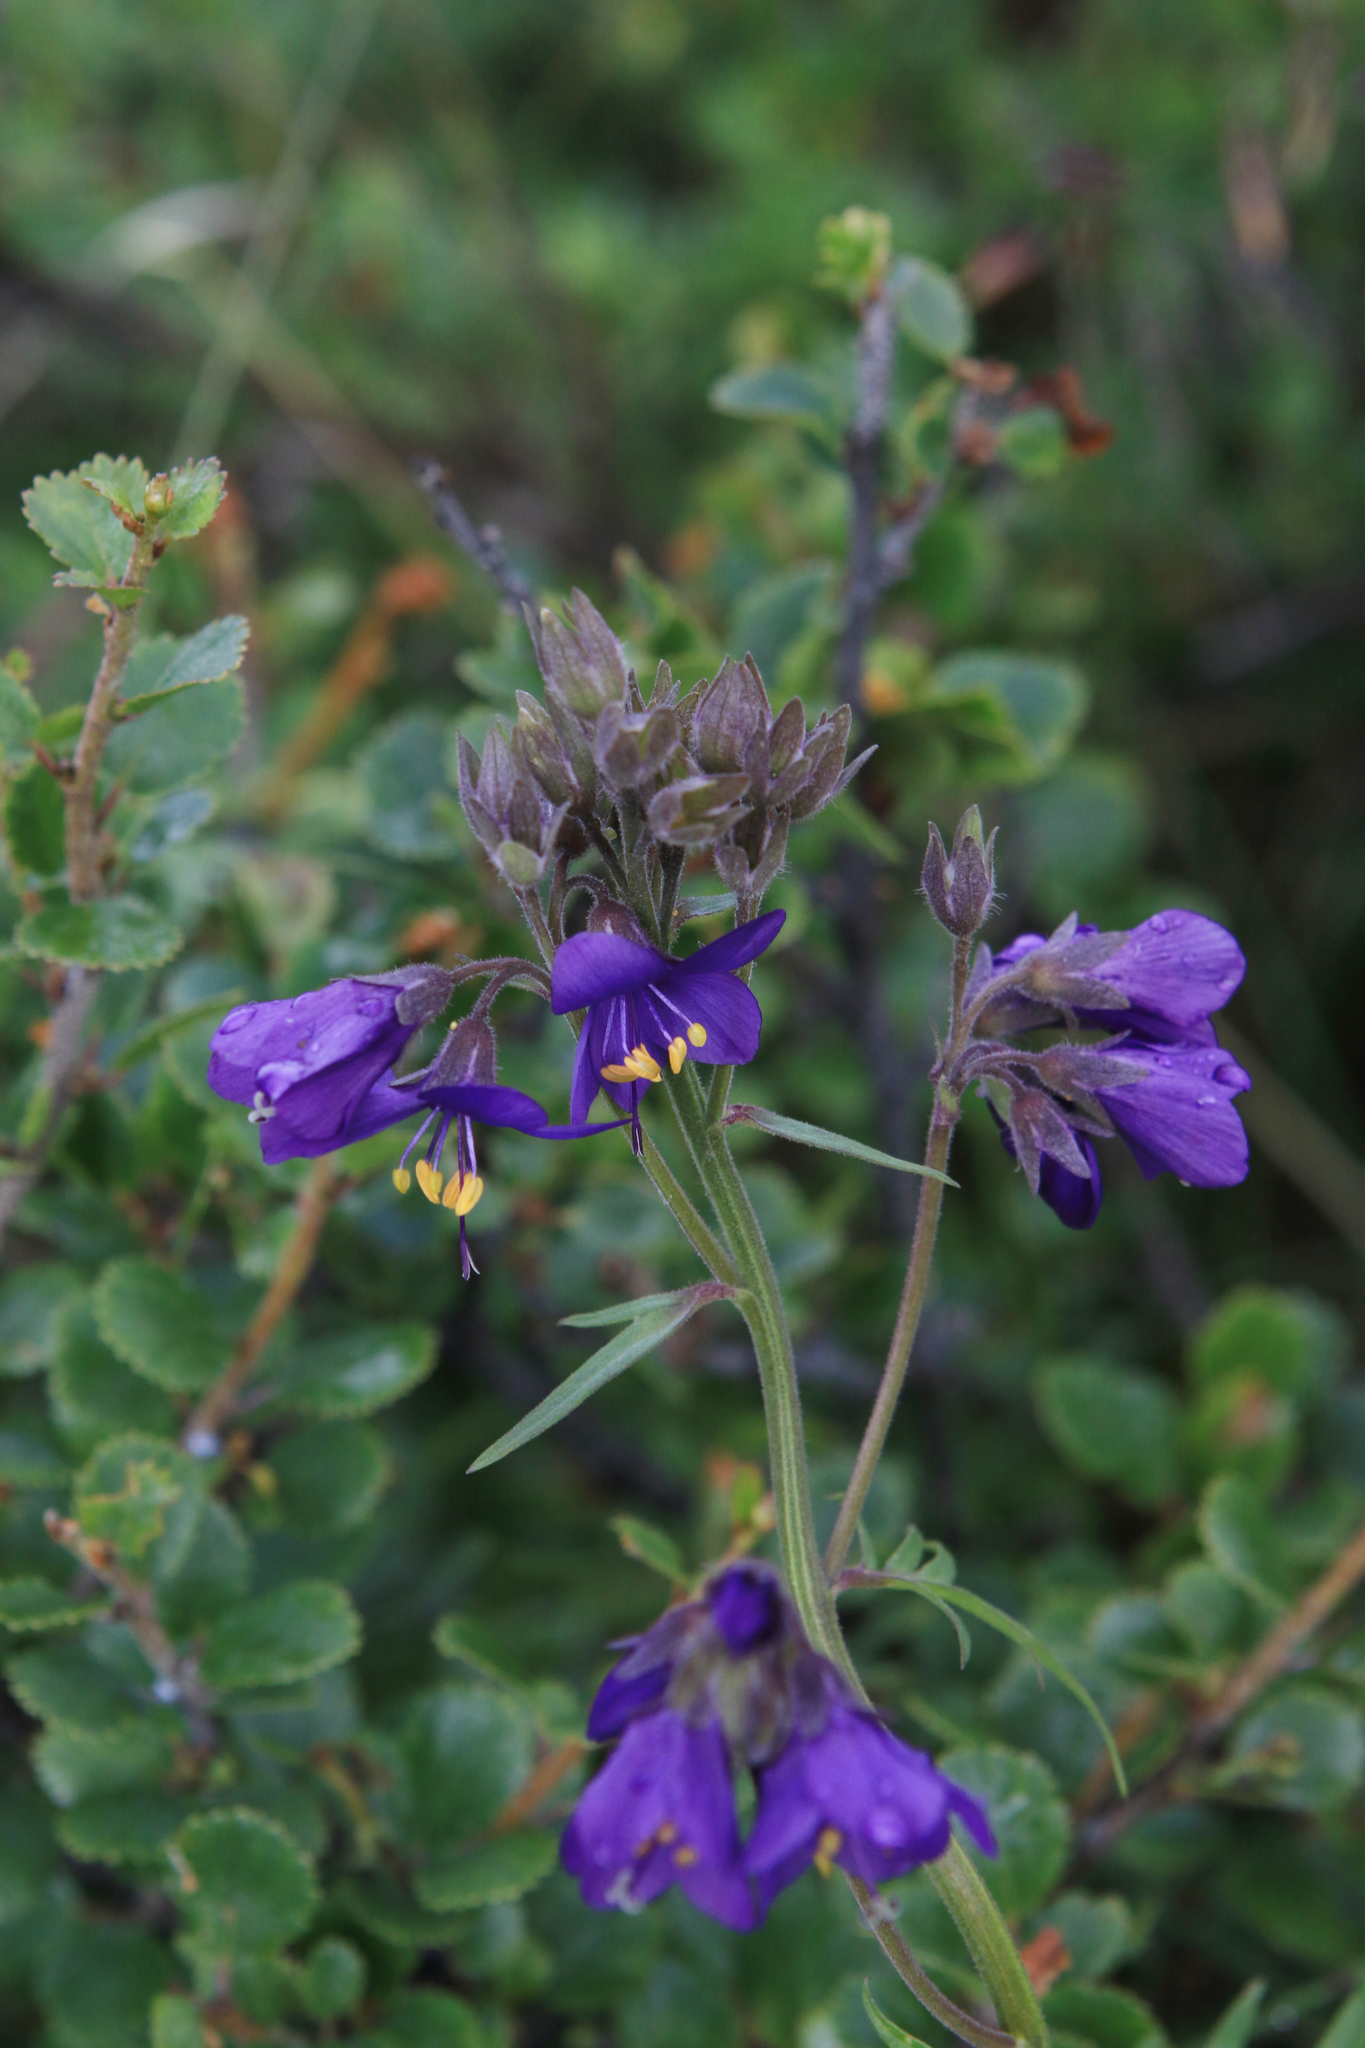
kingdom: Plantae
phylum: Tracheophyta
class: Magnoliopsida
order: Ericales
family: Polemoniaceae
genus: Polemonium
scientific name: Polemonium caeruleum
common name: Jacob's-ladder
